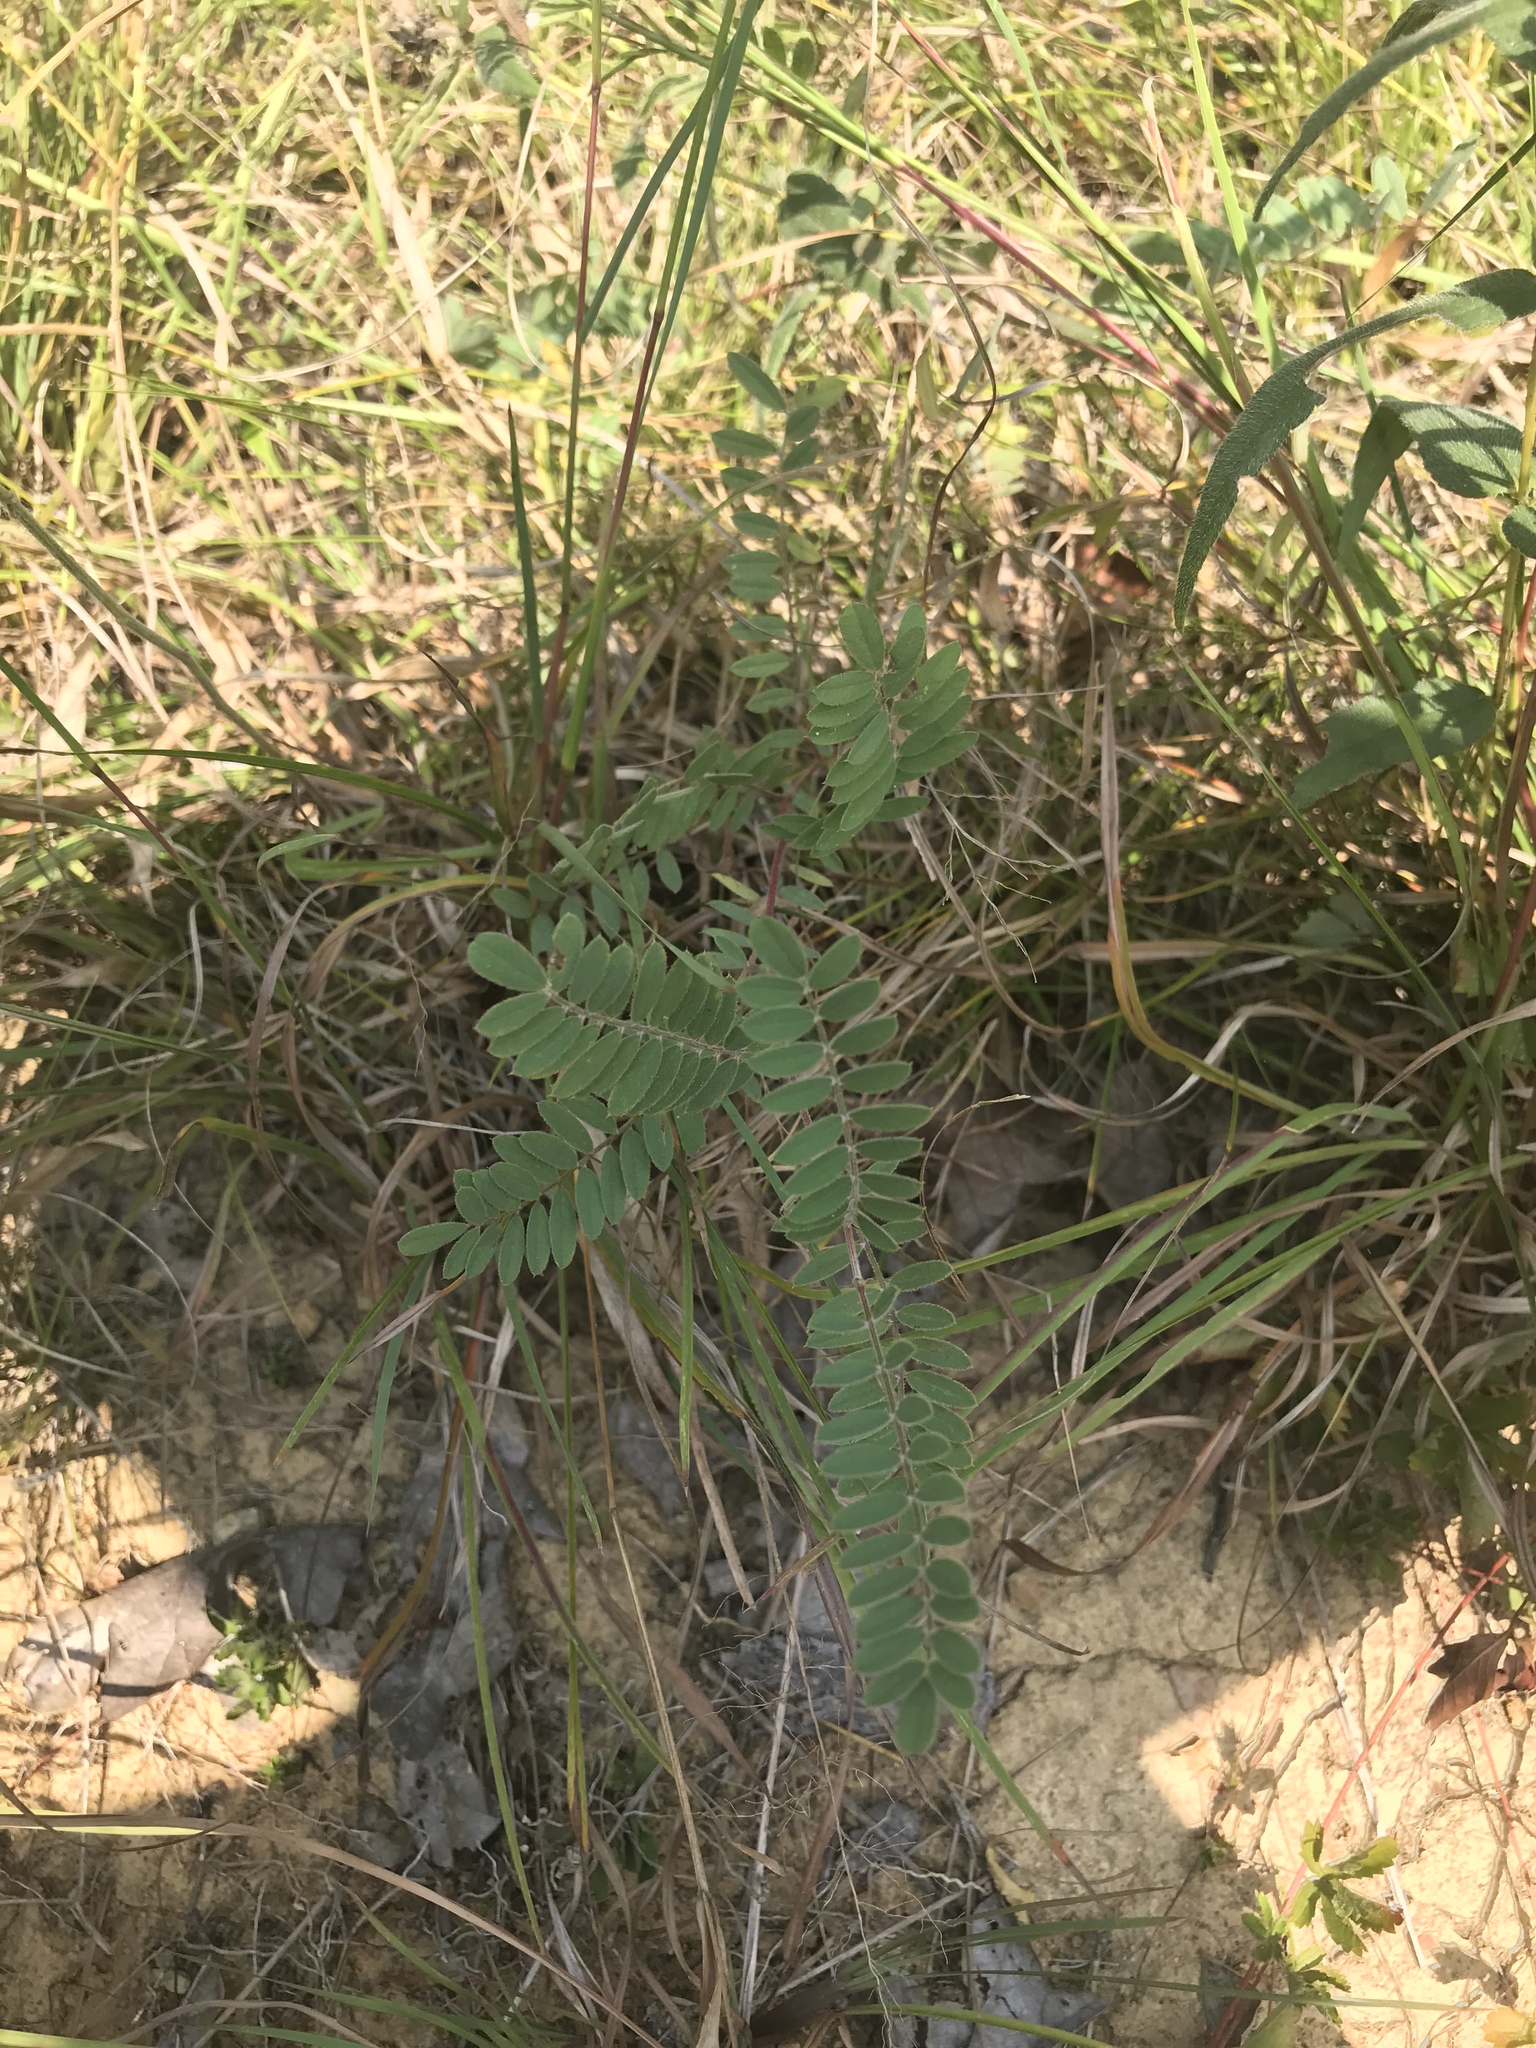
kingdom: Plantae
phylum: Tracheophyta
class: Magnoliopsida
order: Fabales
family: Fabaceae
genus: Tephrosia
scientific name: Tephrosia virginiana
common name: Rabbit-pea
